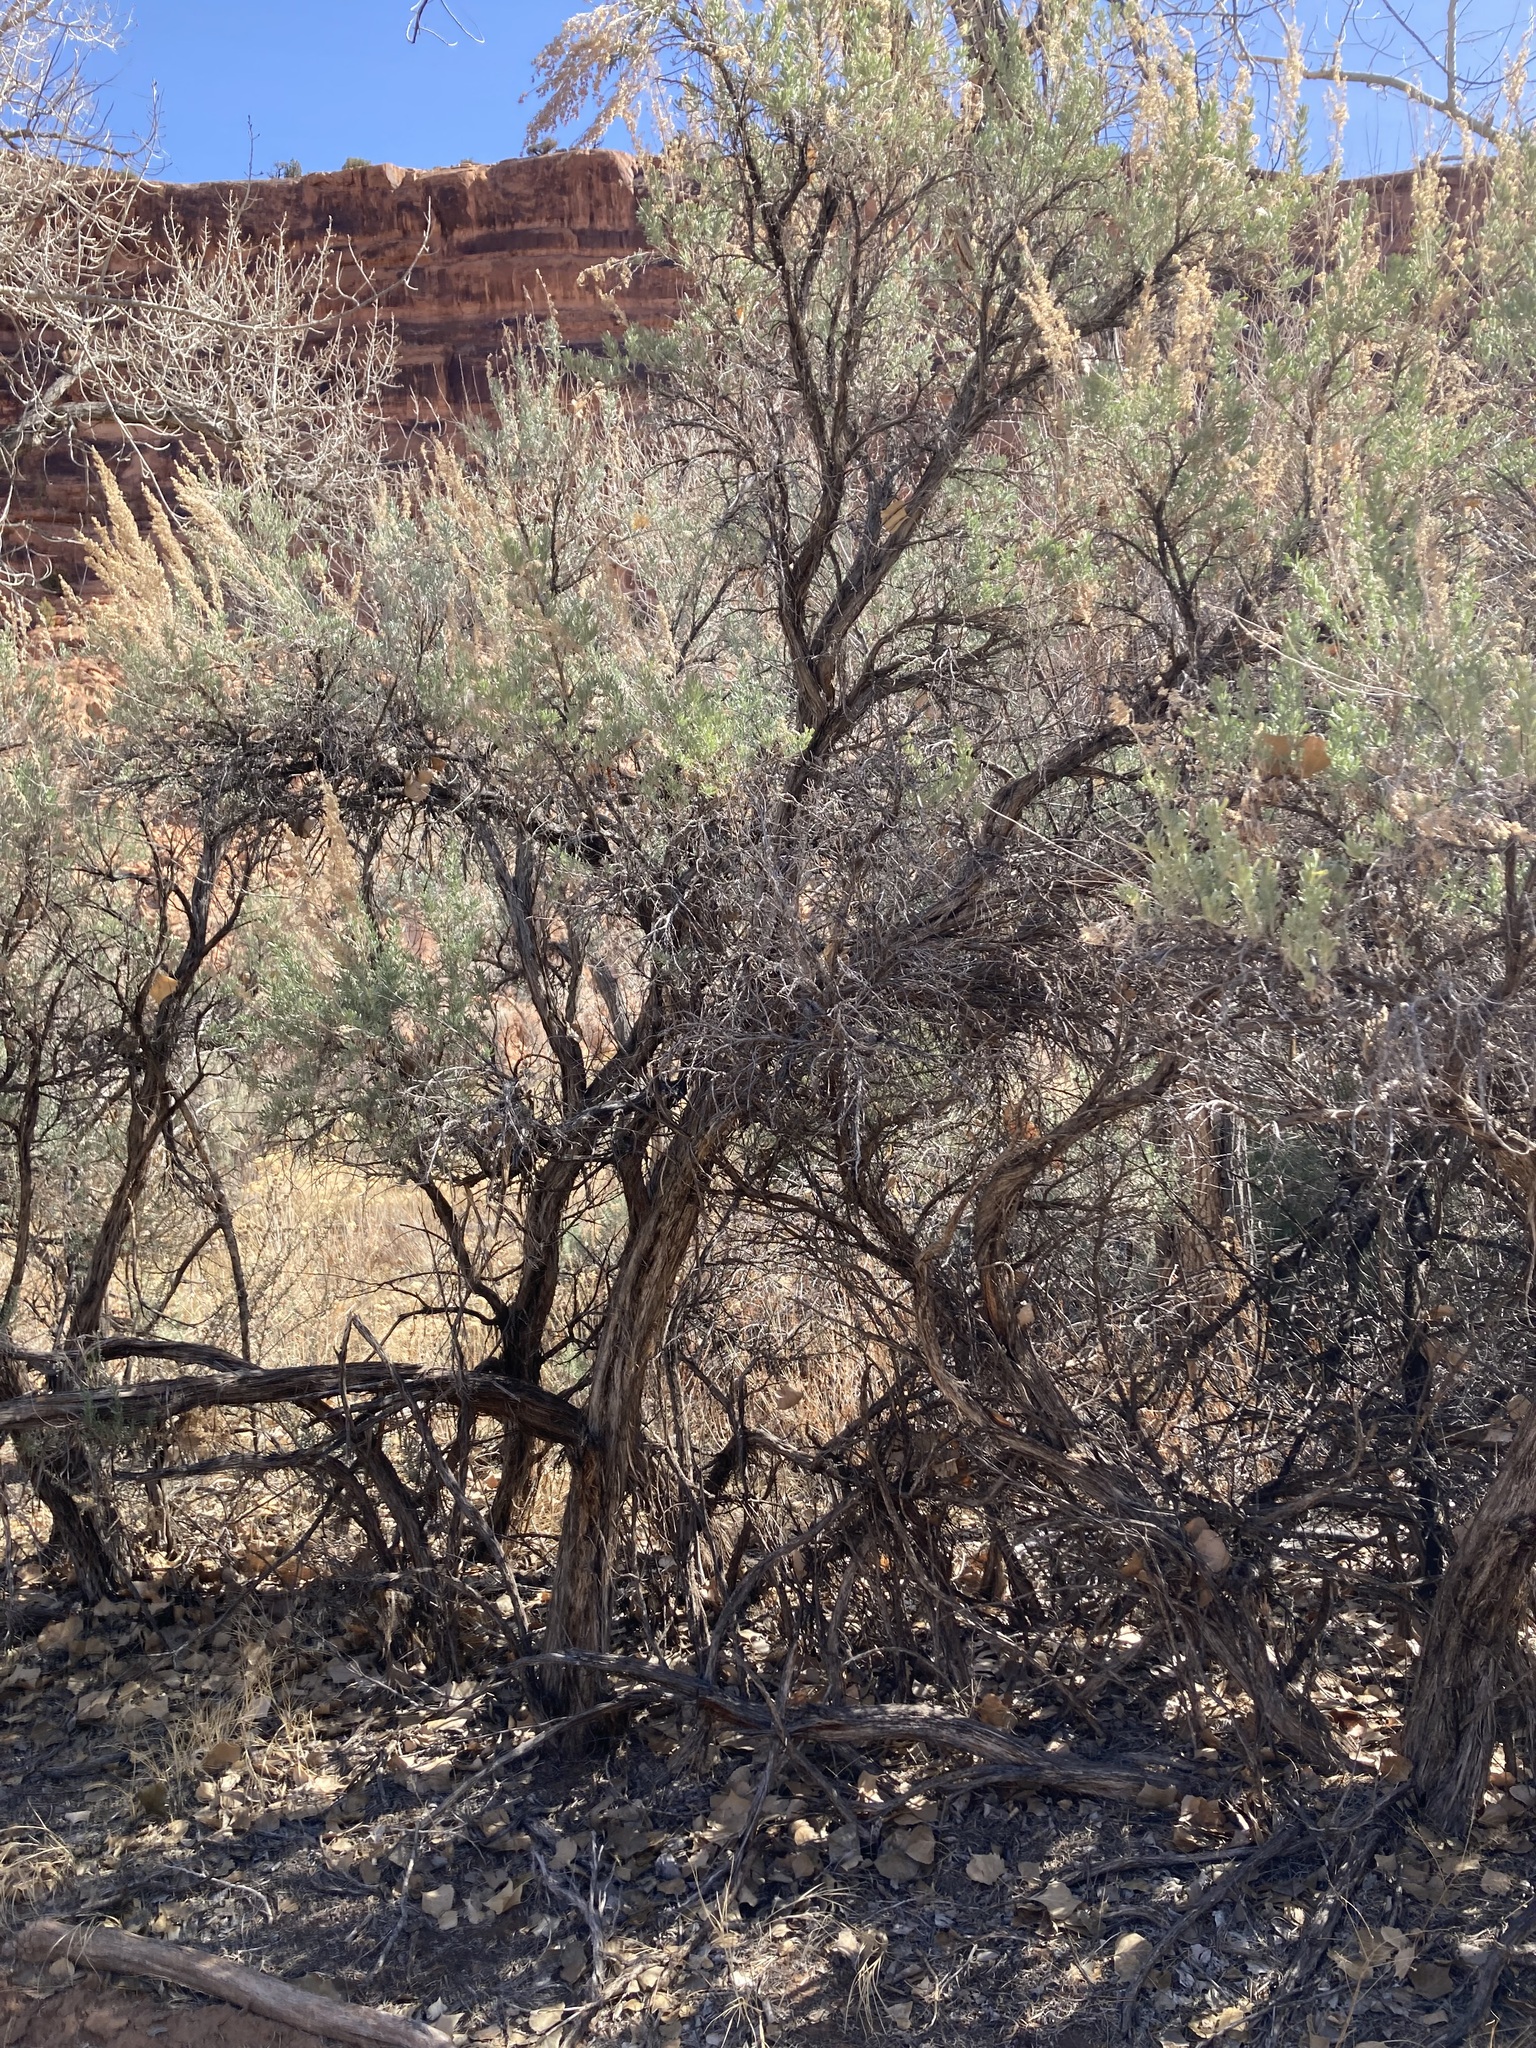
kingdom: Plantae
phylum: Tracheophyta
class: Magnoliopsida
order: Asterales
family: Asteraceae
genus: Artemisia
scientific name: Artemisia tridentata
